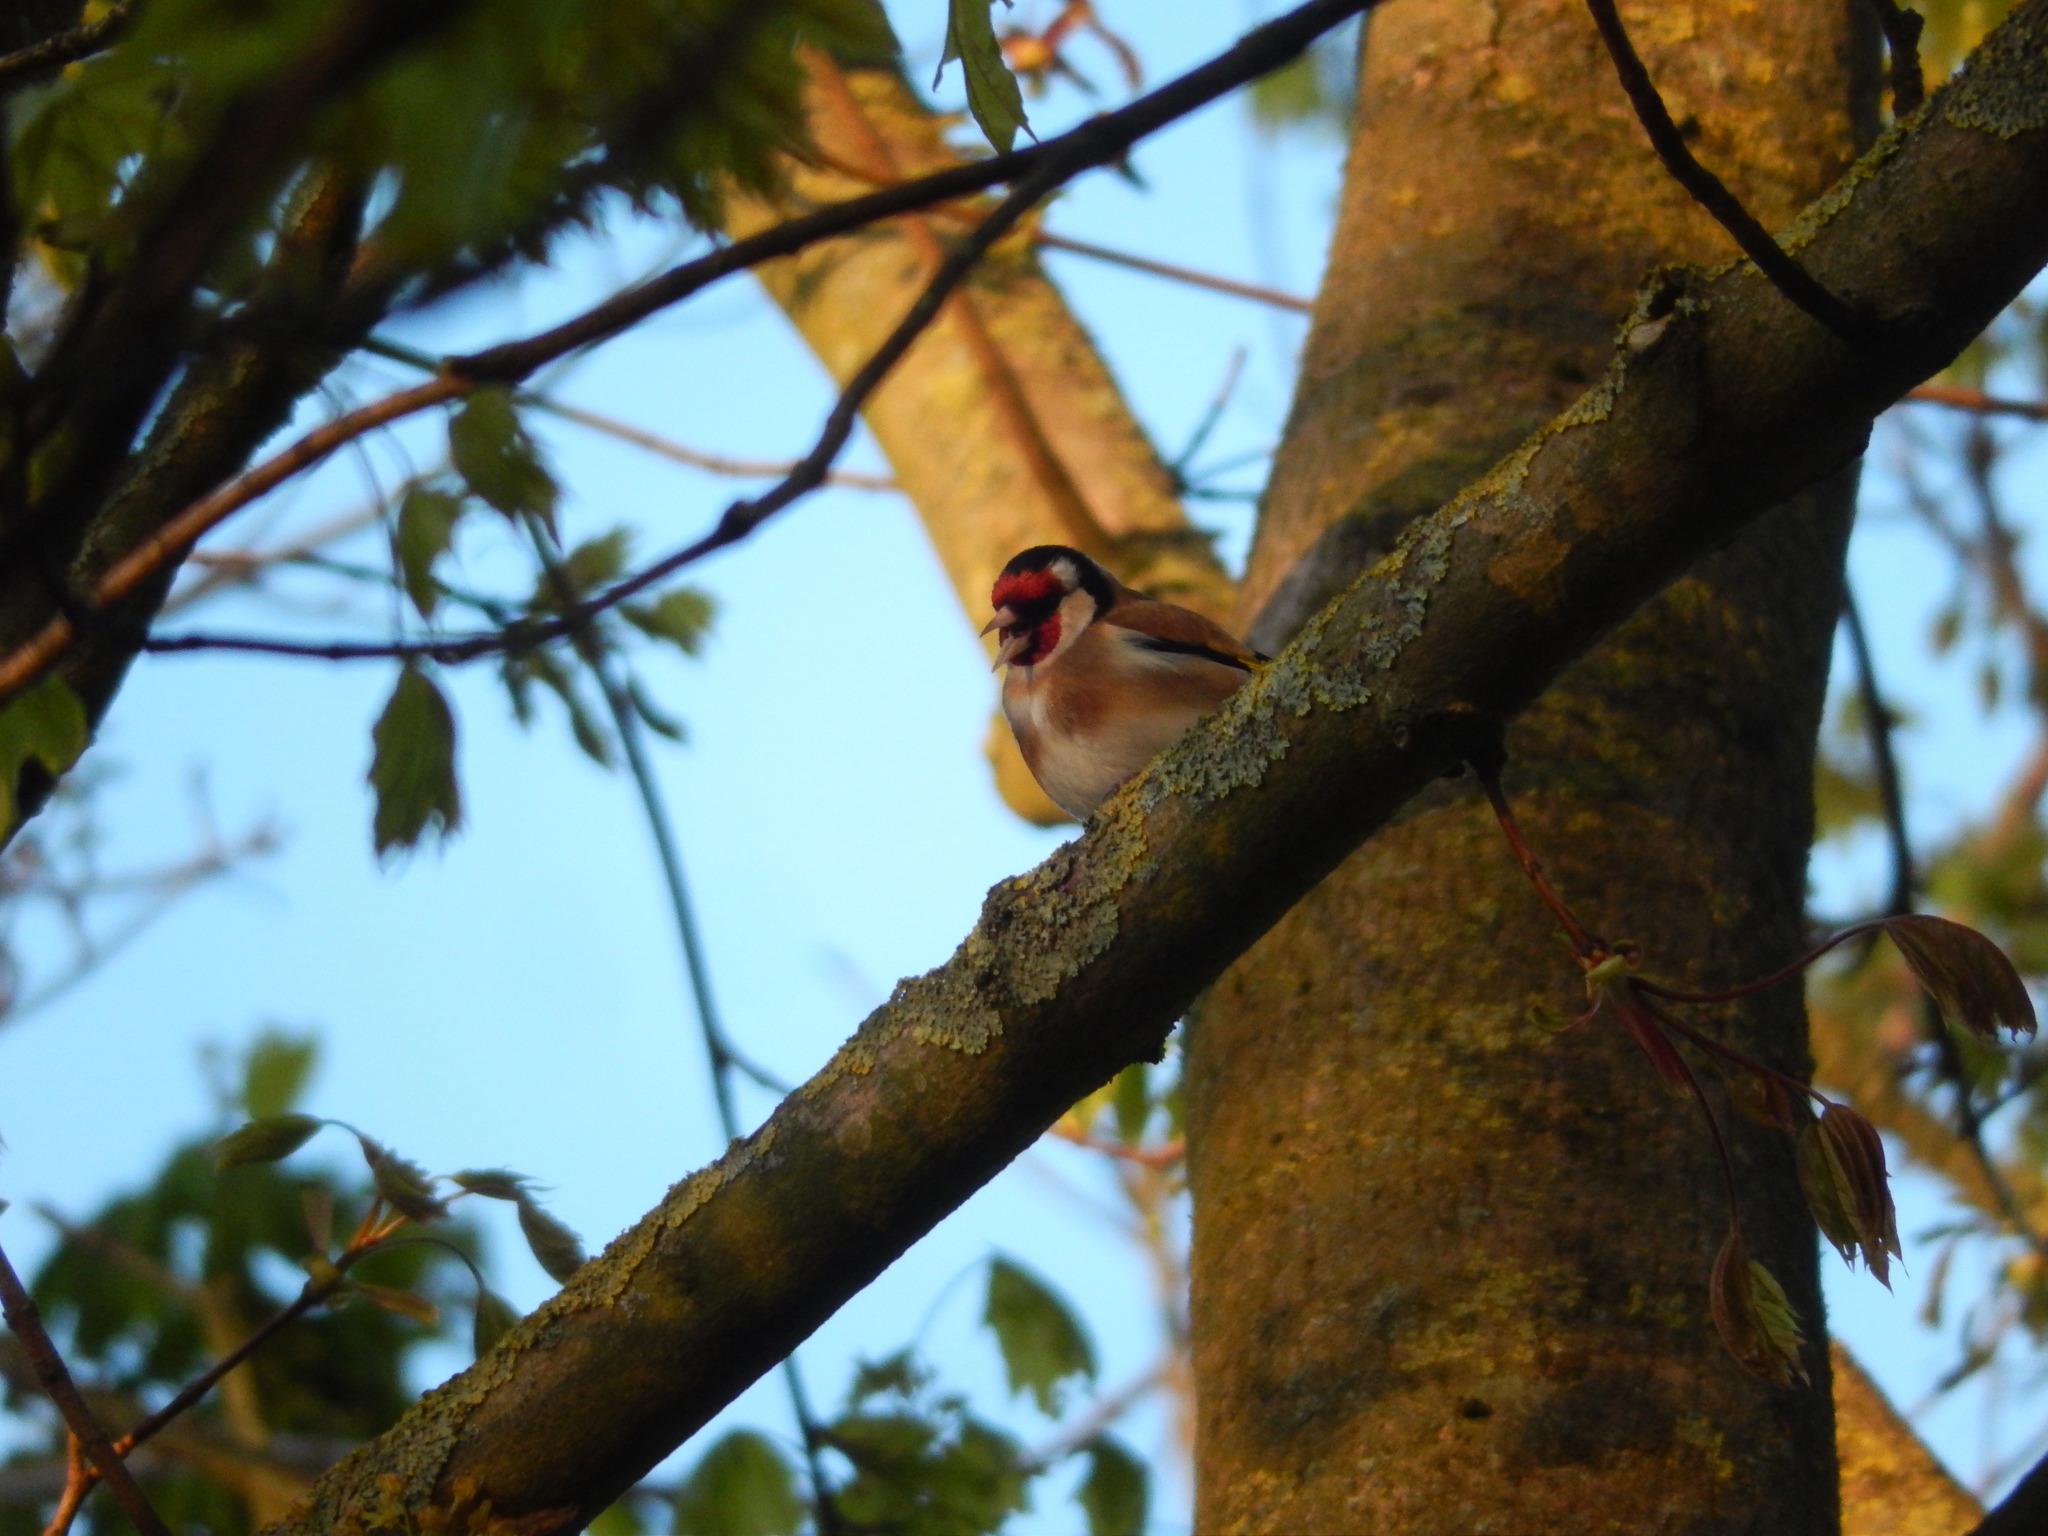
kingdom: Animalia
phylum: Chordata
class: Aves
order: Passeriformes
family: Fringillidae
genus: Carduelis
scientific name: Carduelis carduelis
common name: European goldfinch
